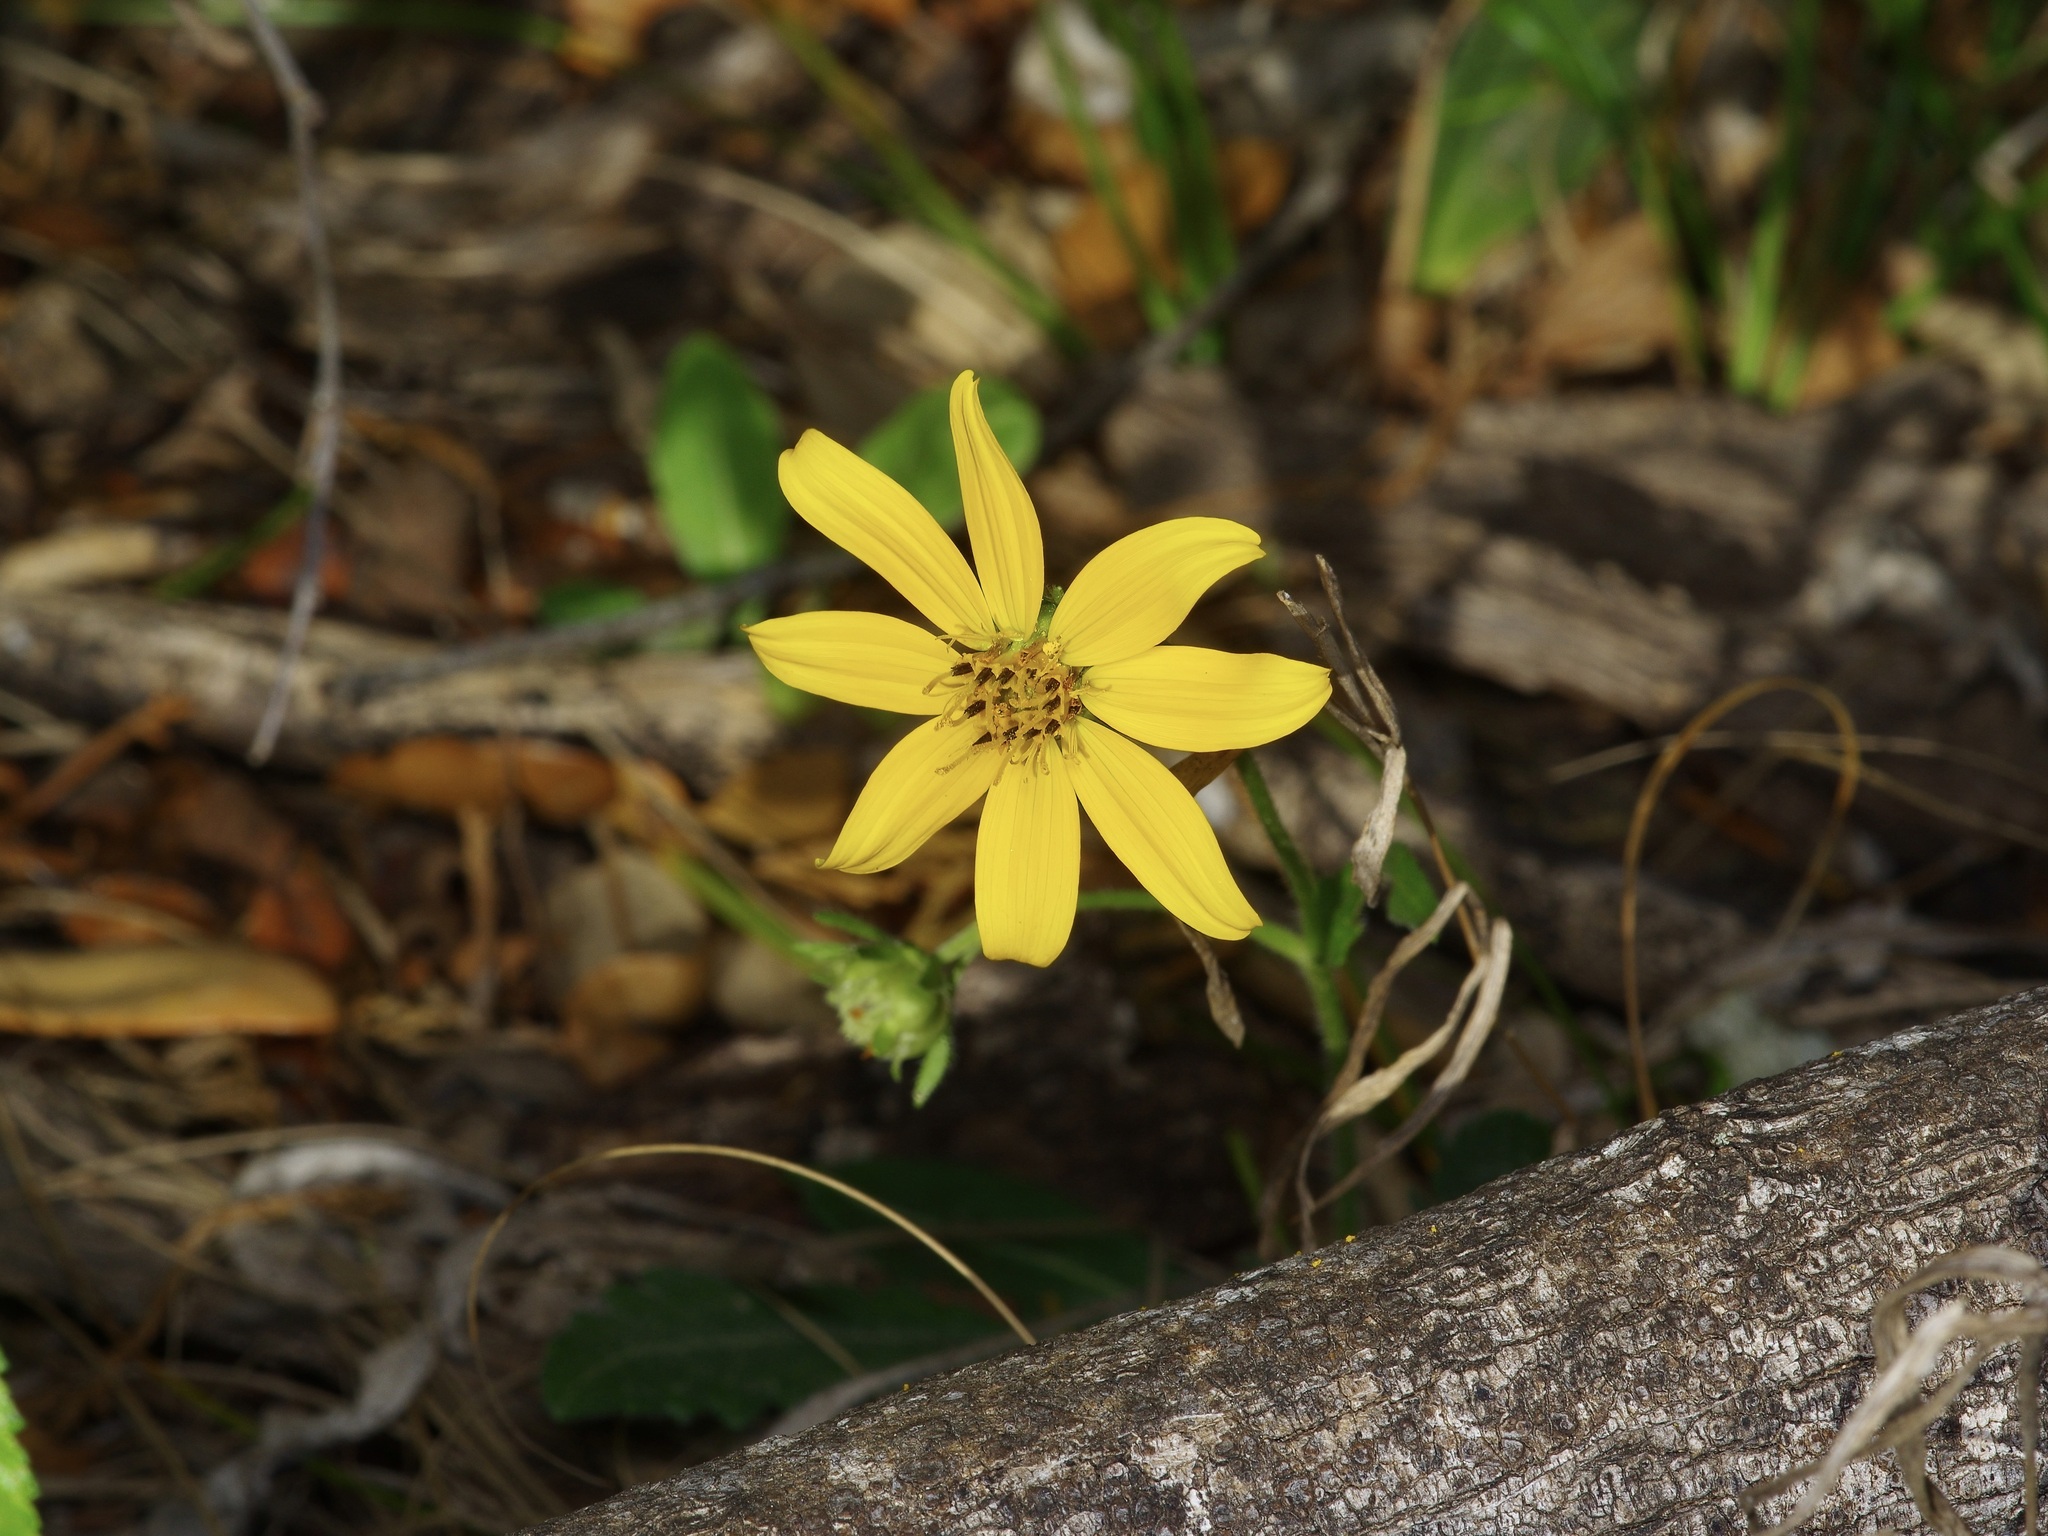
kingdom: Plantae
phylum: Tracheophyta
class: Magnoliopsida
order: Asterales
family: Asteraceae
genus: Engelmannia
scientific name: Engelmannia peristenia
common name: Engelmann's daisy
